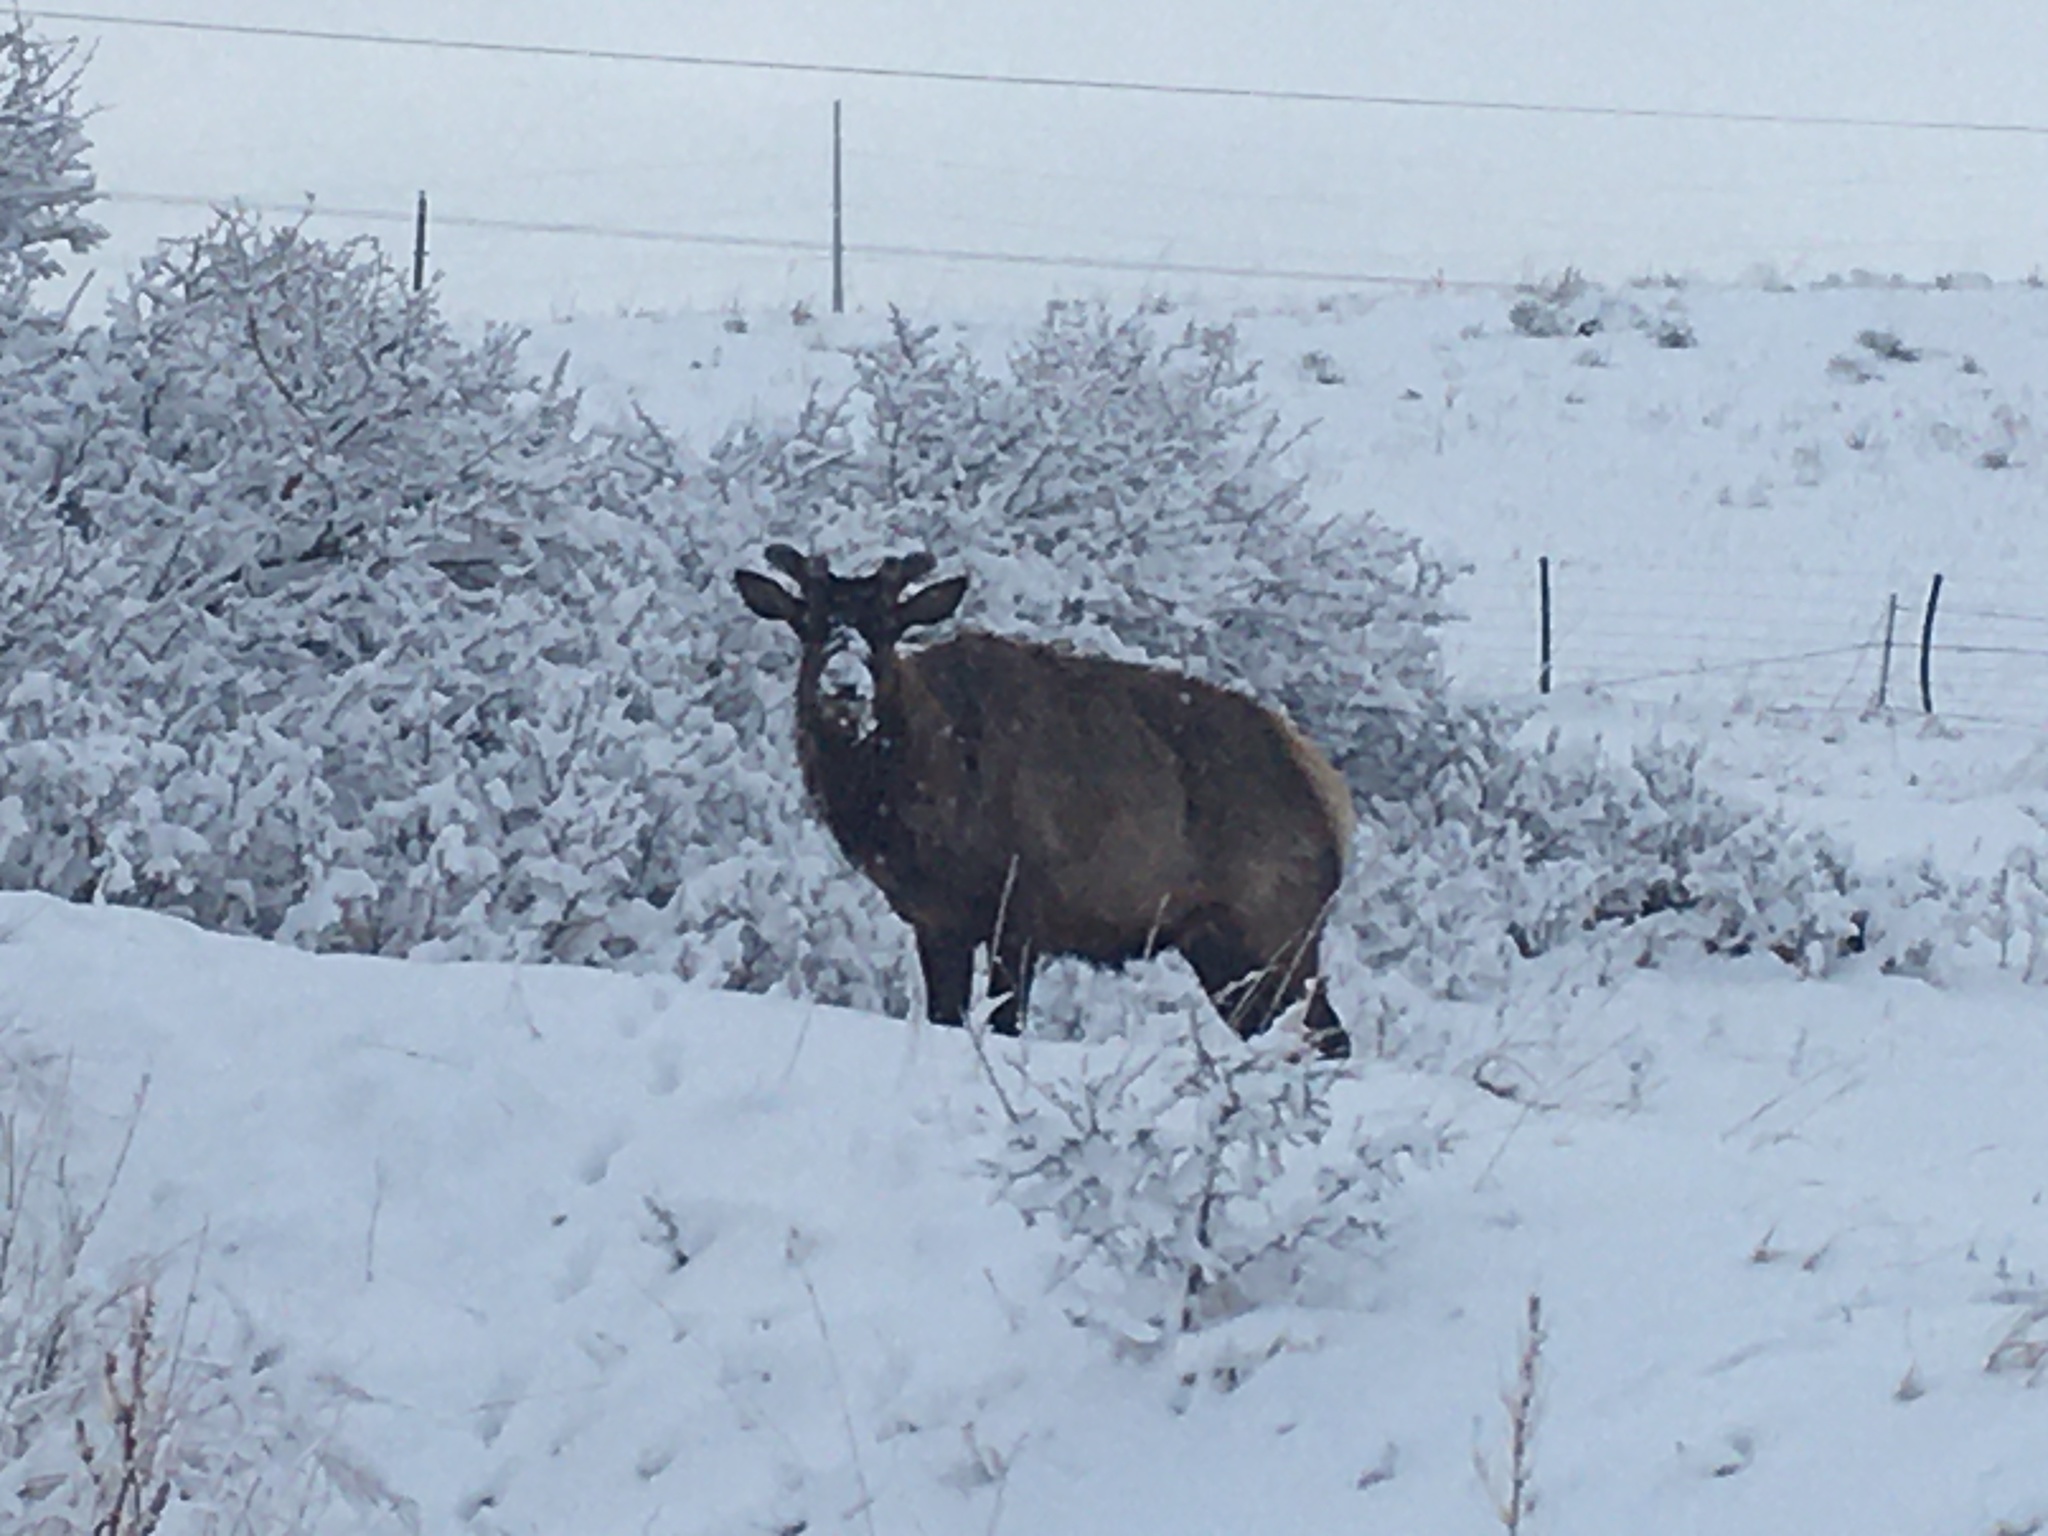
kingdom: Animalia
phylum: Chordata
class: Mammalia
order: Artiodactyla
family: Cervidae
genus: Cervus
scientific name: Cervus elaphus
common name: Red deer
